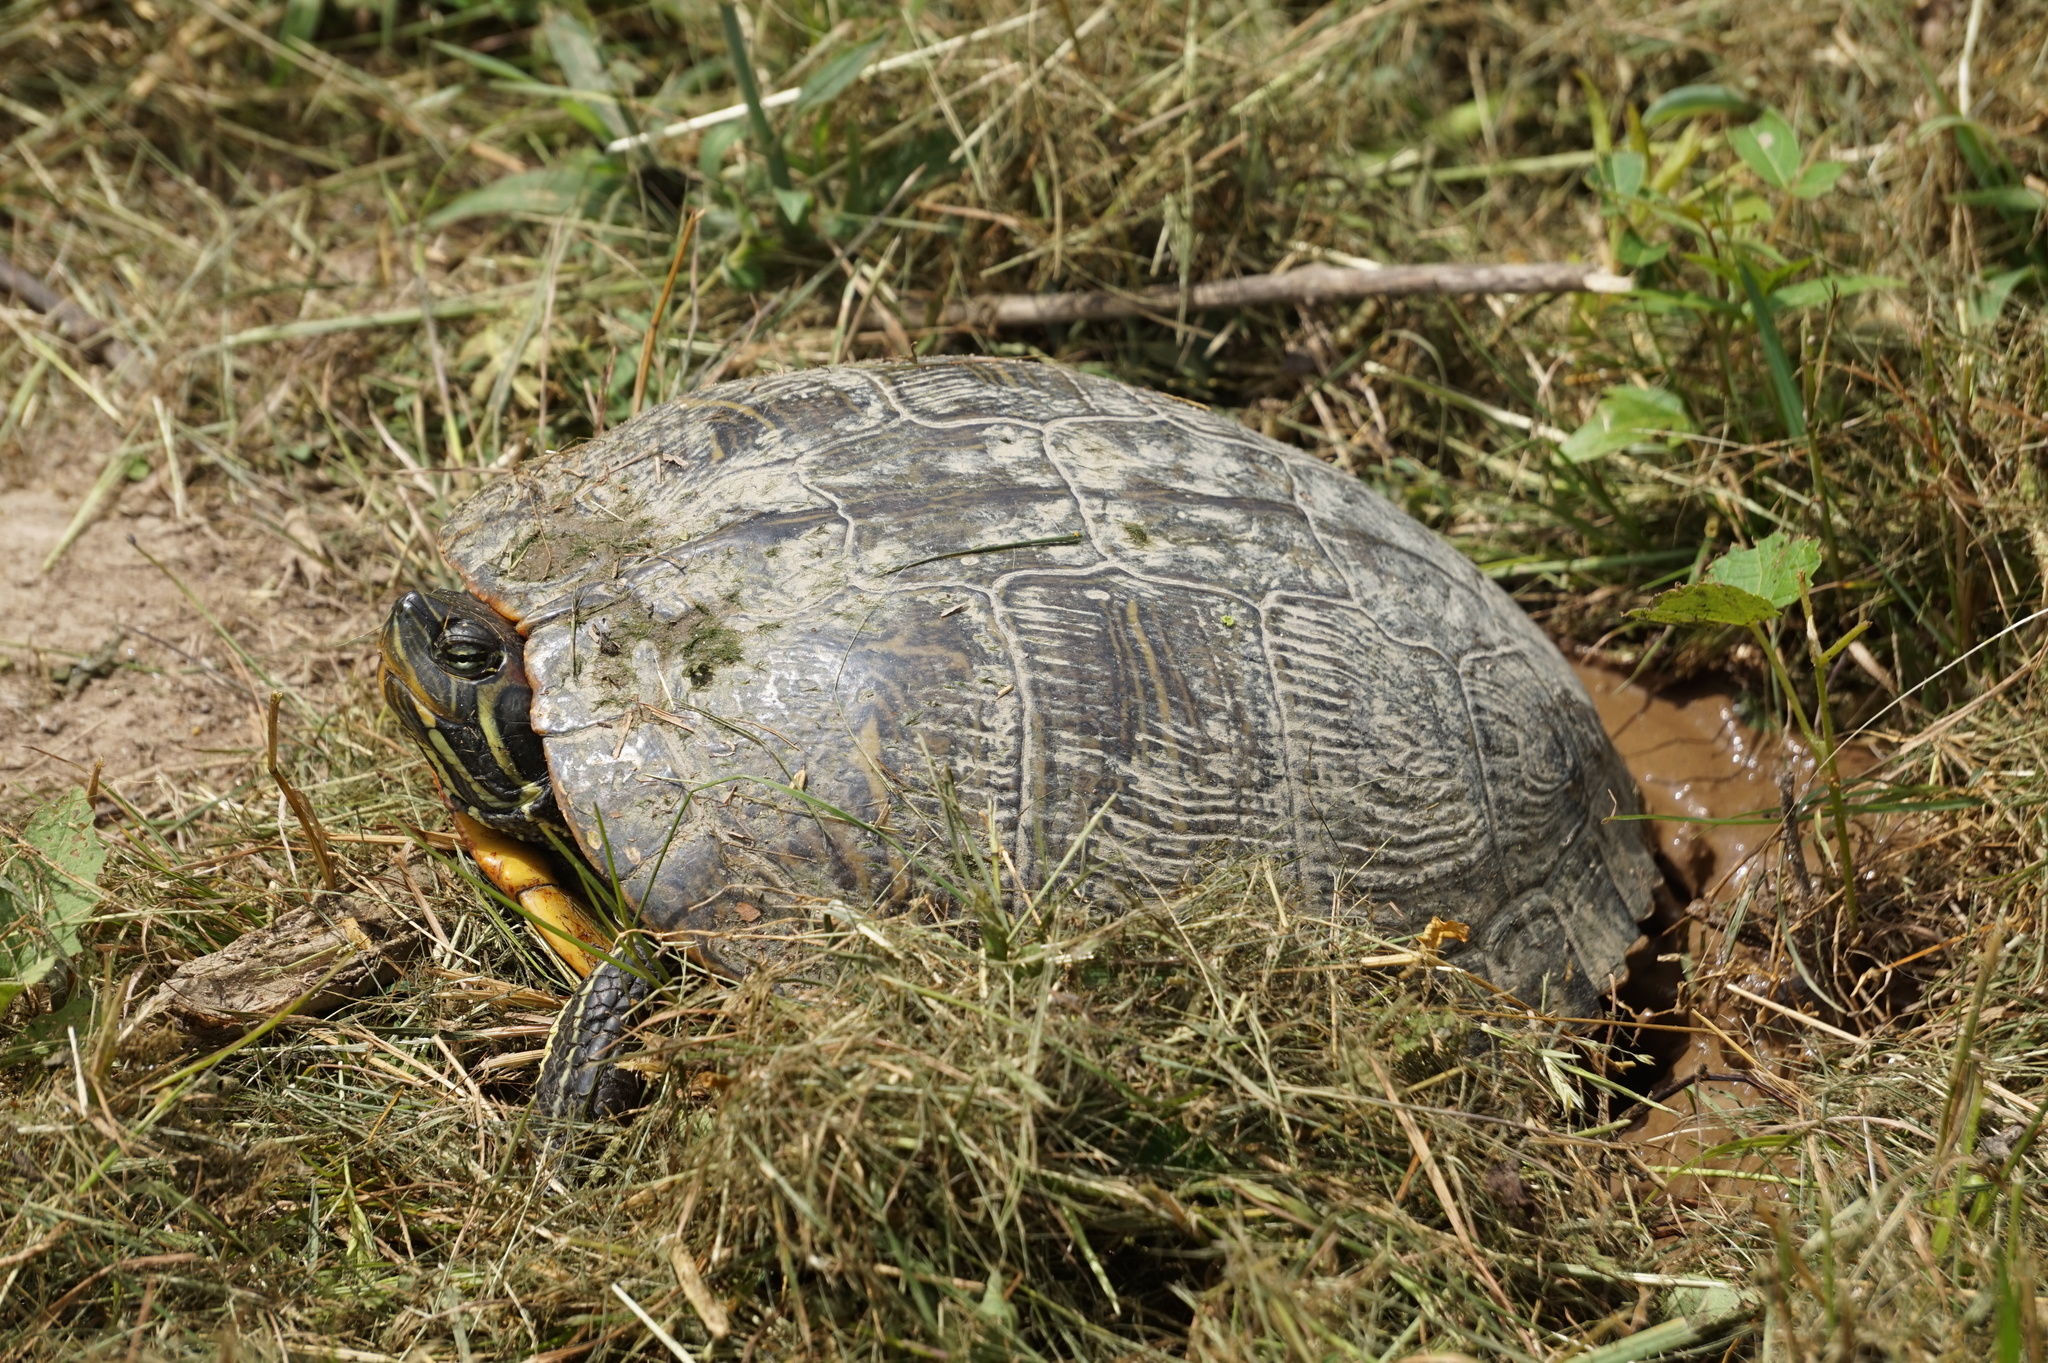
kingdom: Animalia
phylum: Chordata
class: Testudines
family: Emydidae
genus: Trachemys
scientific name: Trachemys scripta
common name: Slider
